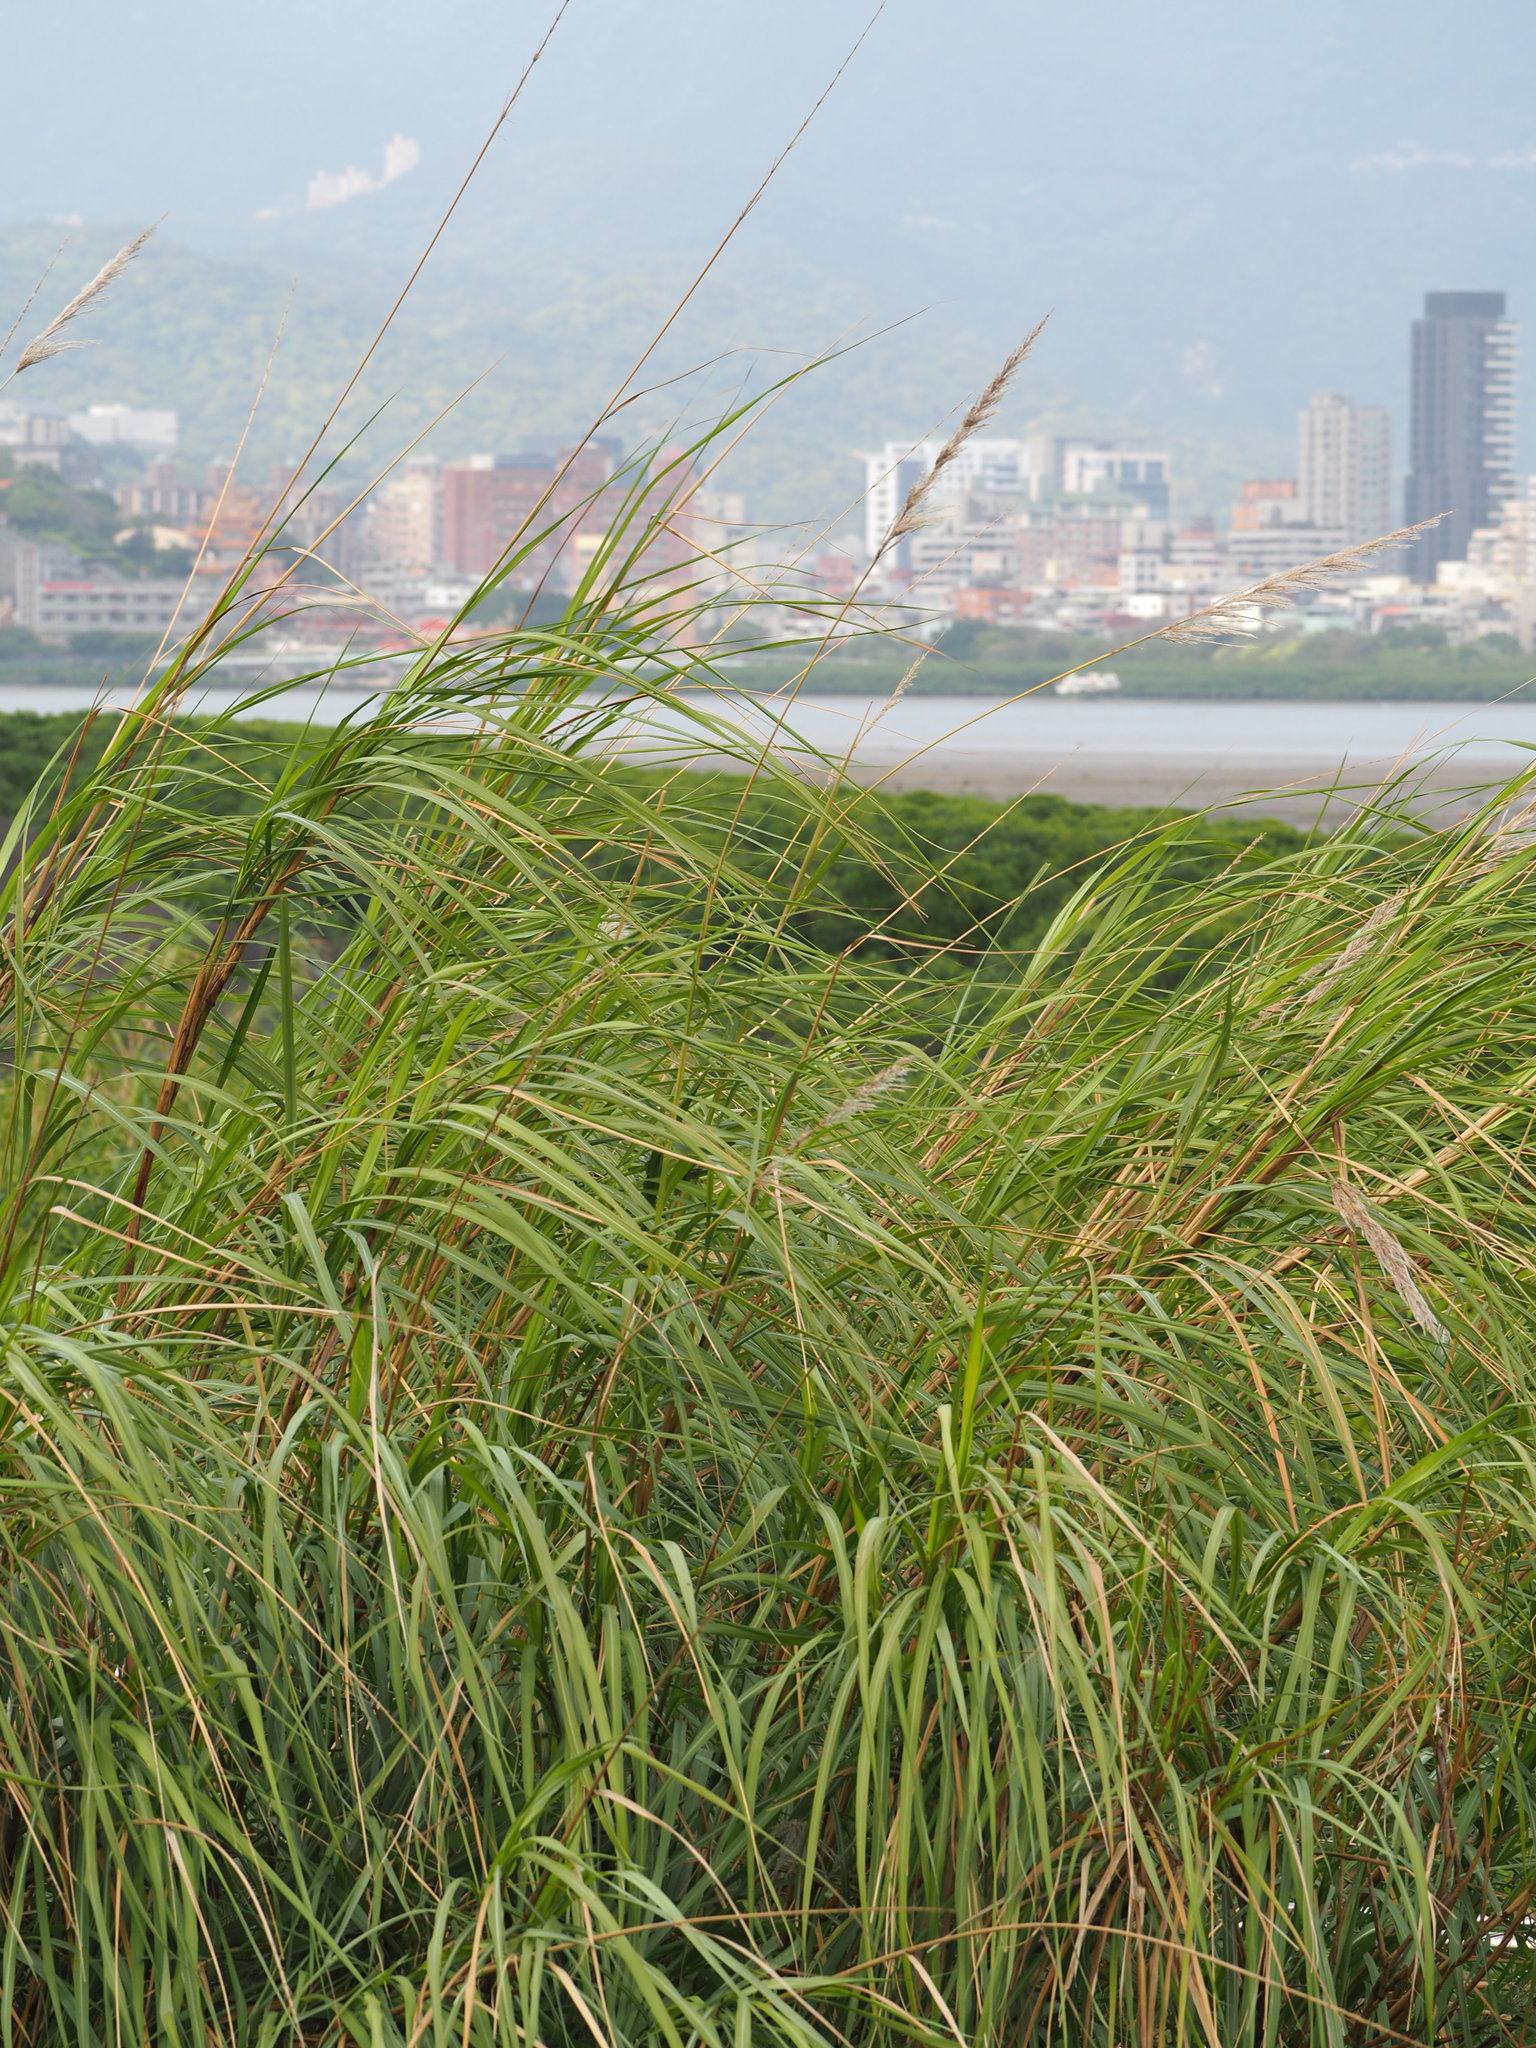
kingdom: Plantae
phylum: Tracheophyta
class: Liliopsida
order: Poales
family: Poaceae
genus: Saccharum
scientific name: Saccharum spontaneum
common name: Wild sugarcane
